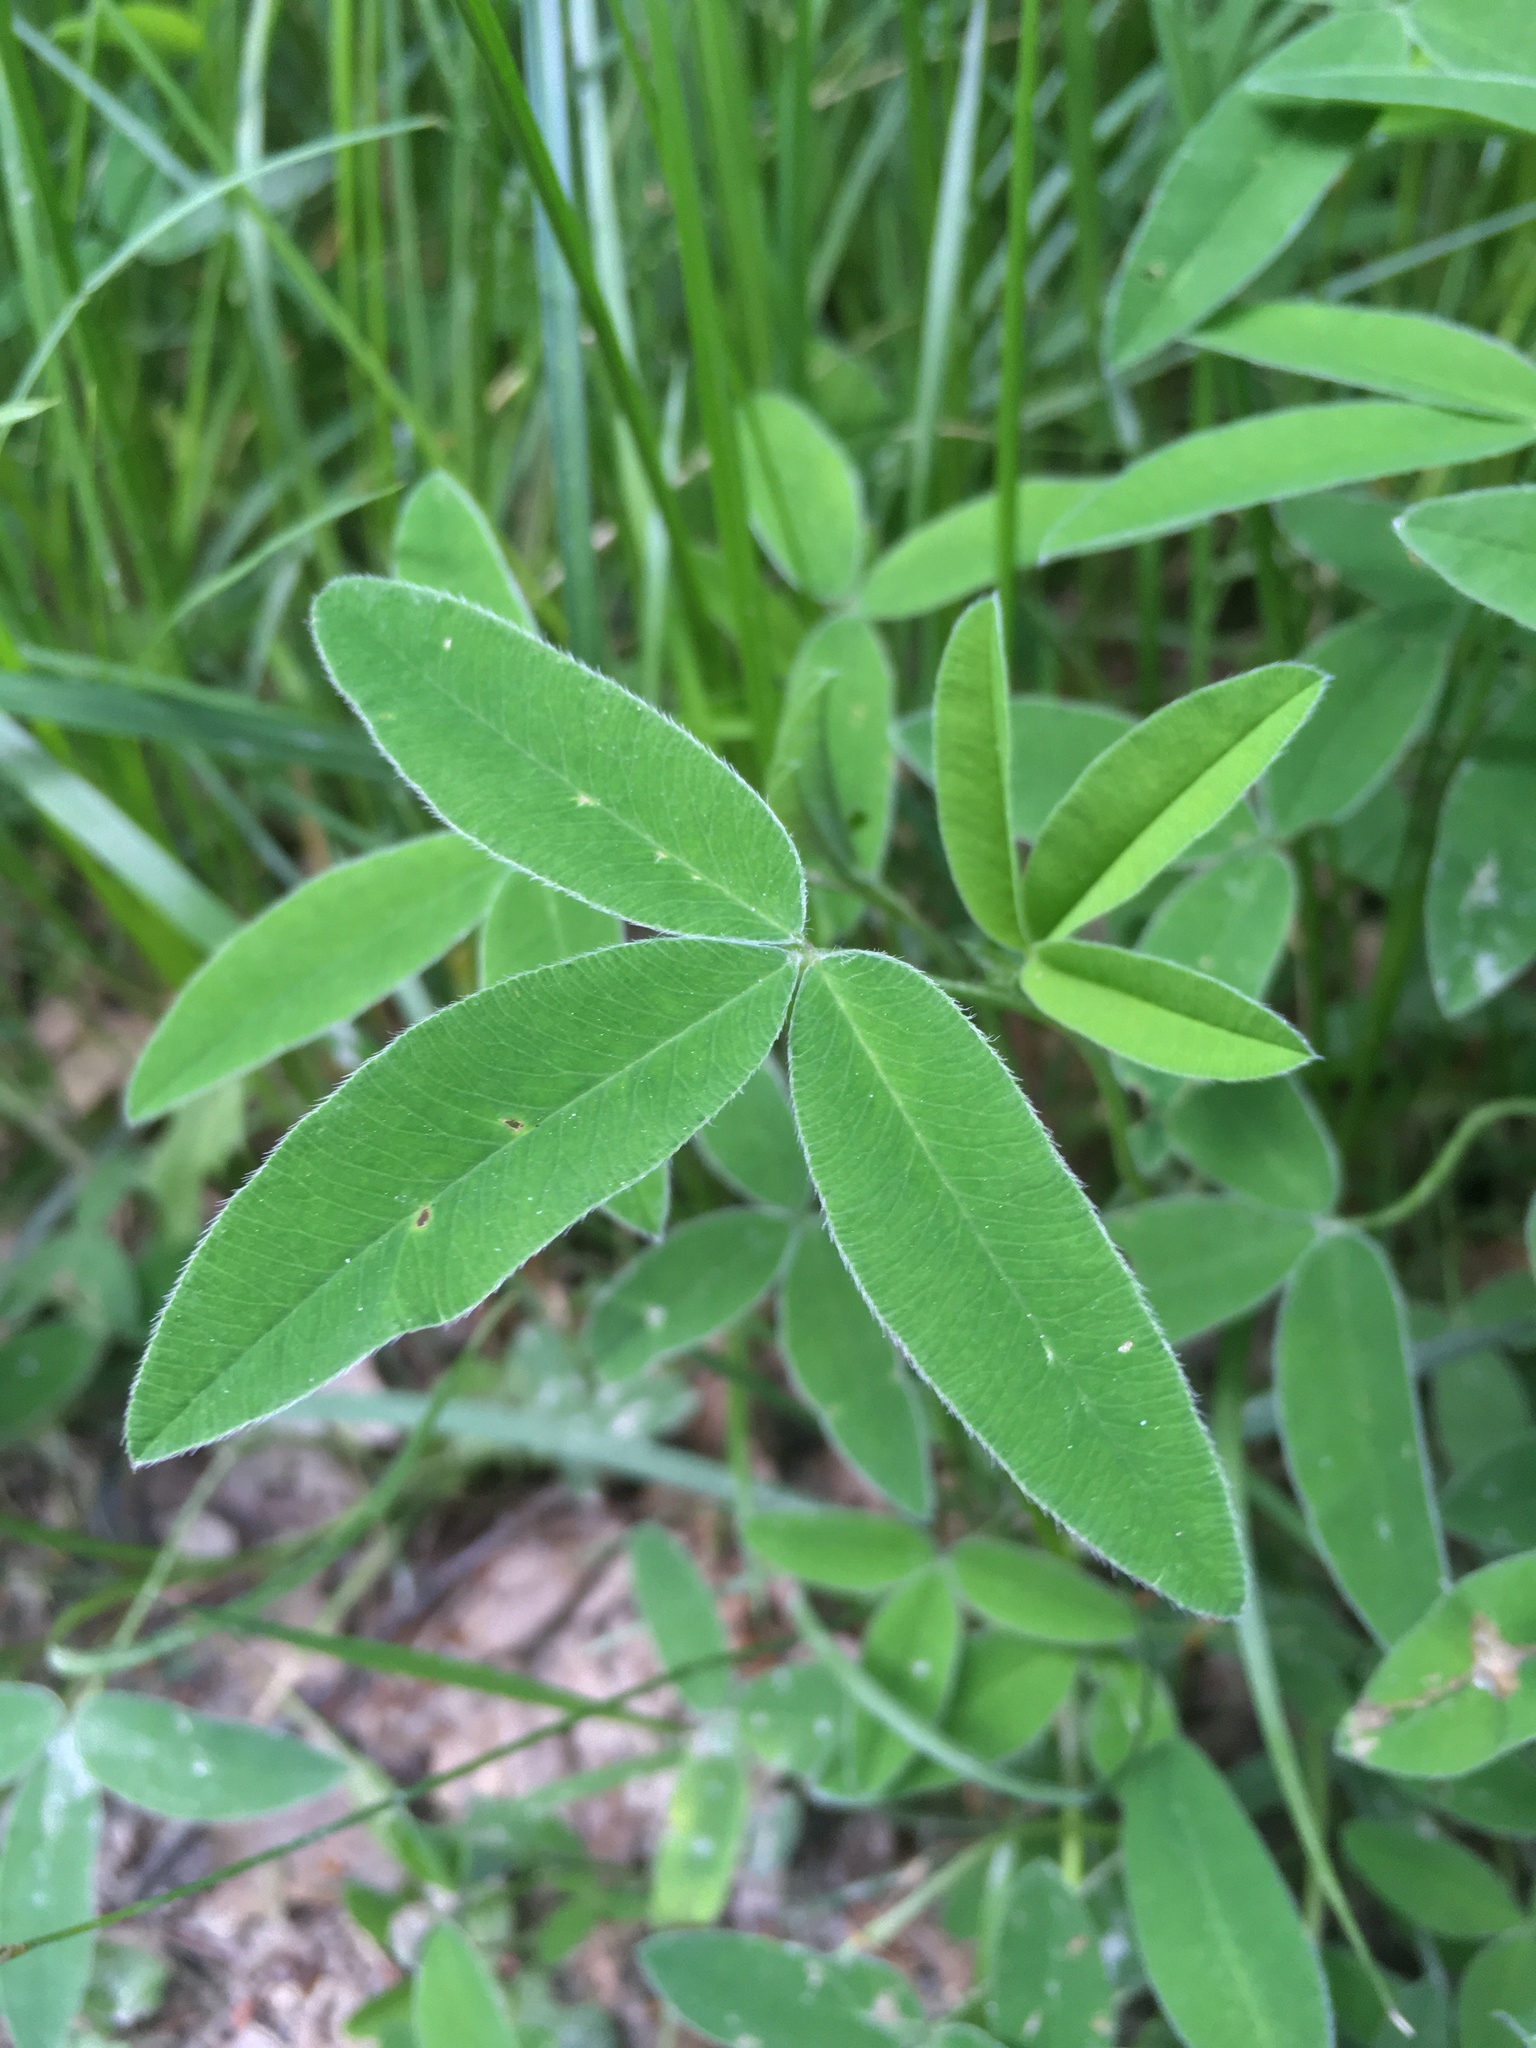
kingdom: Plantae
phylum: Tracheophyta
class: Magnoliopsida
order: Fabales
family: Fabaceae
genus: Trifolium
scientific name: Trifolium medium
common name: Zigzag clover
